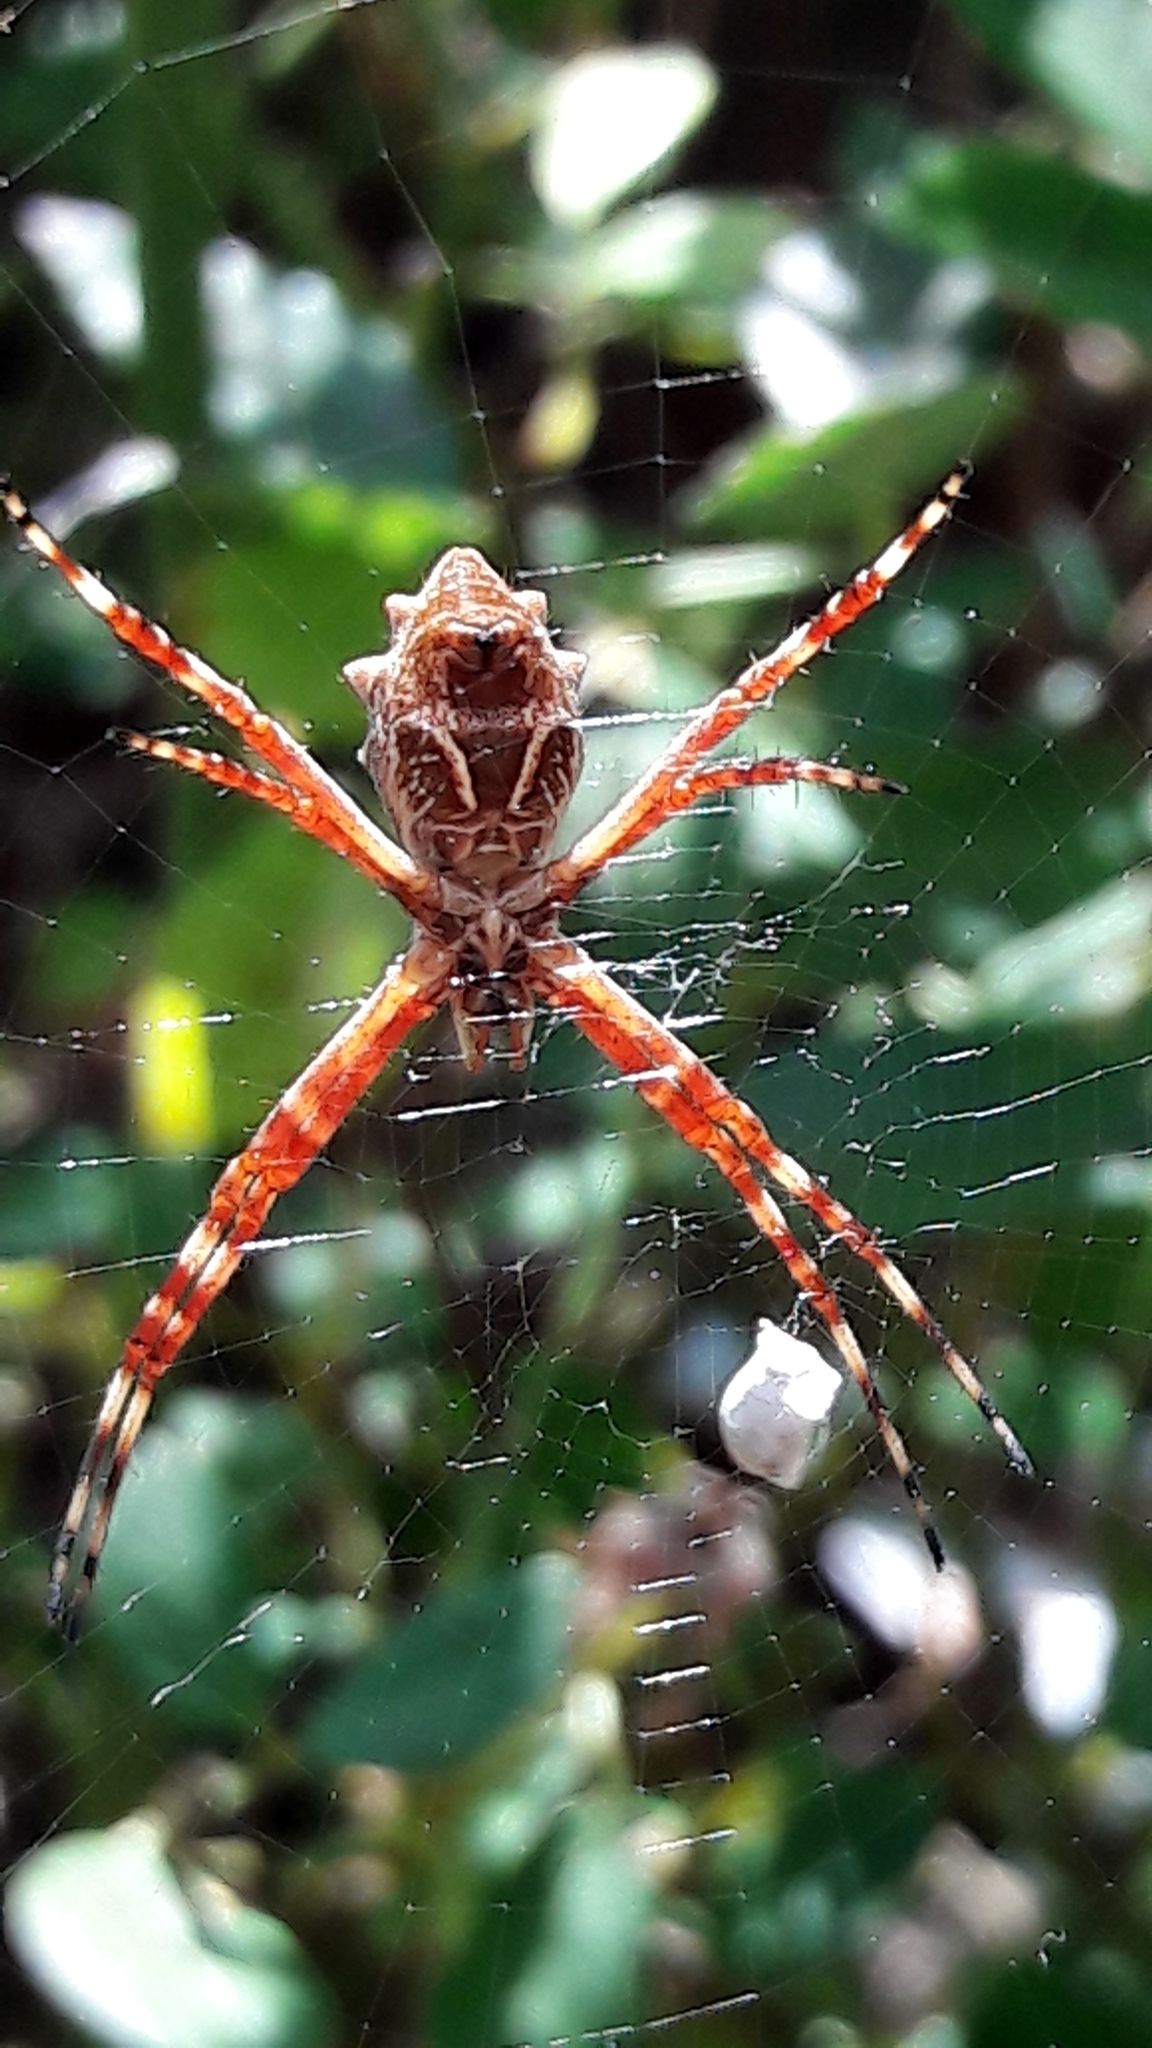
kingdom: Animalia
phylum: Arthropoda
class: Arachnida
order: Araneae
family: Araneidae
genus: Argiope
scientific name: Argiope argentata
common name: Orb weavers
